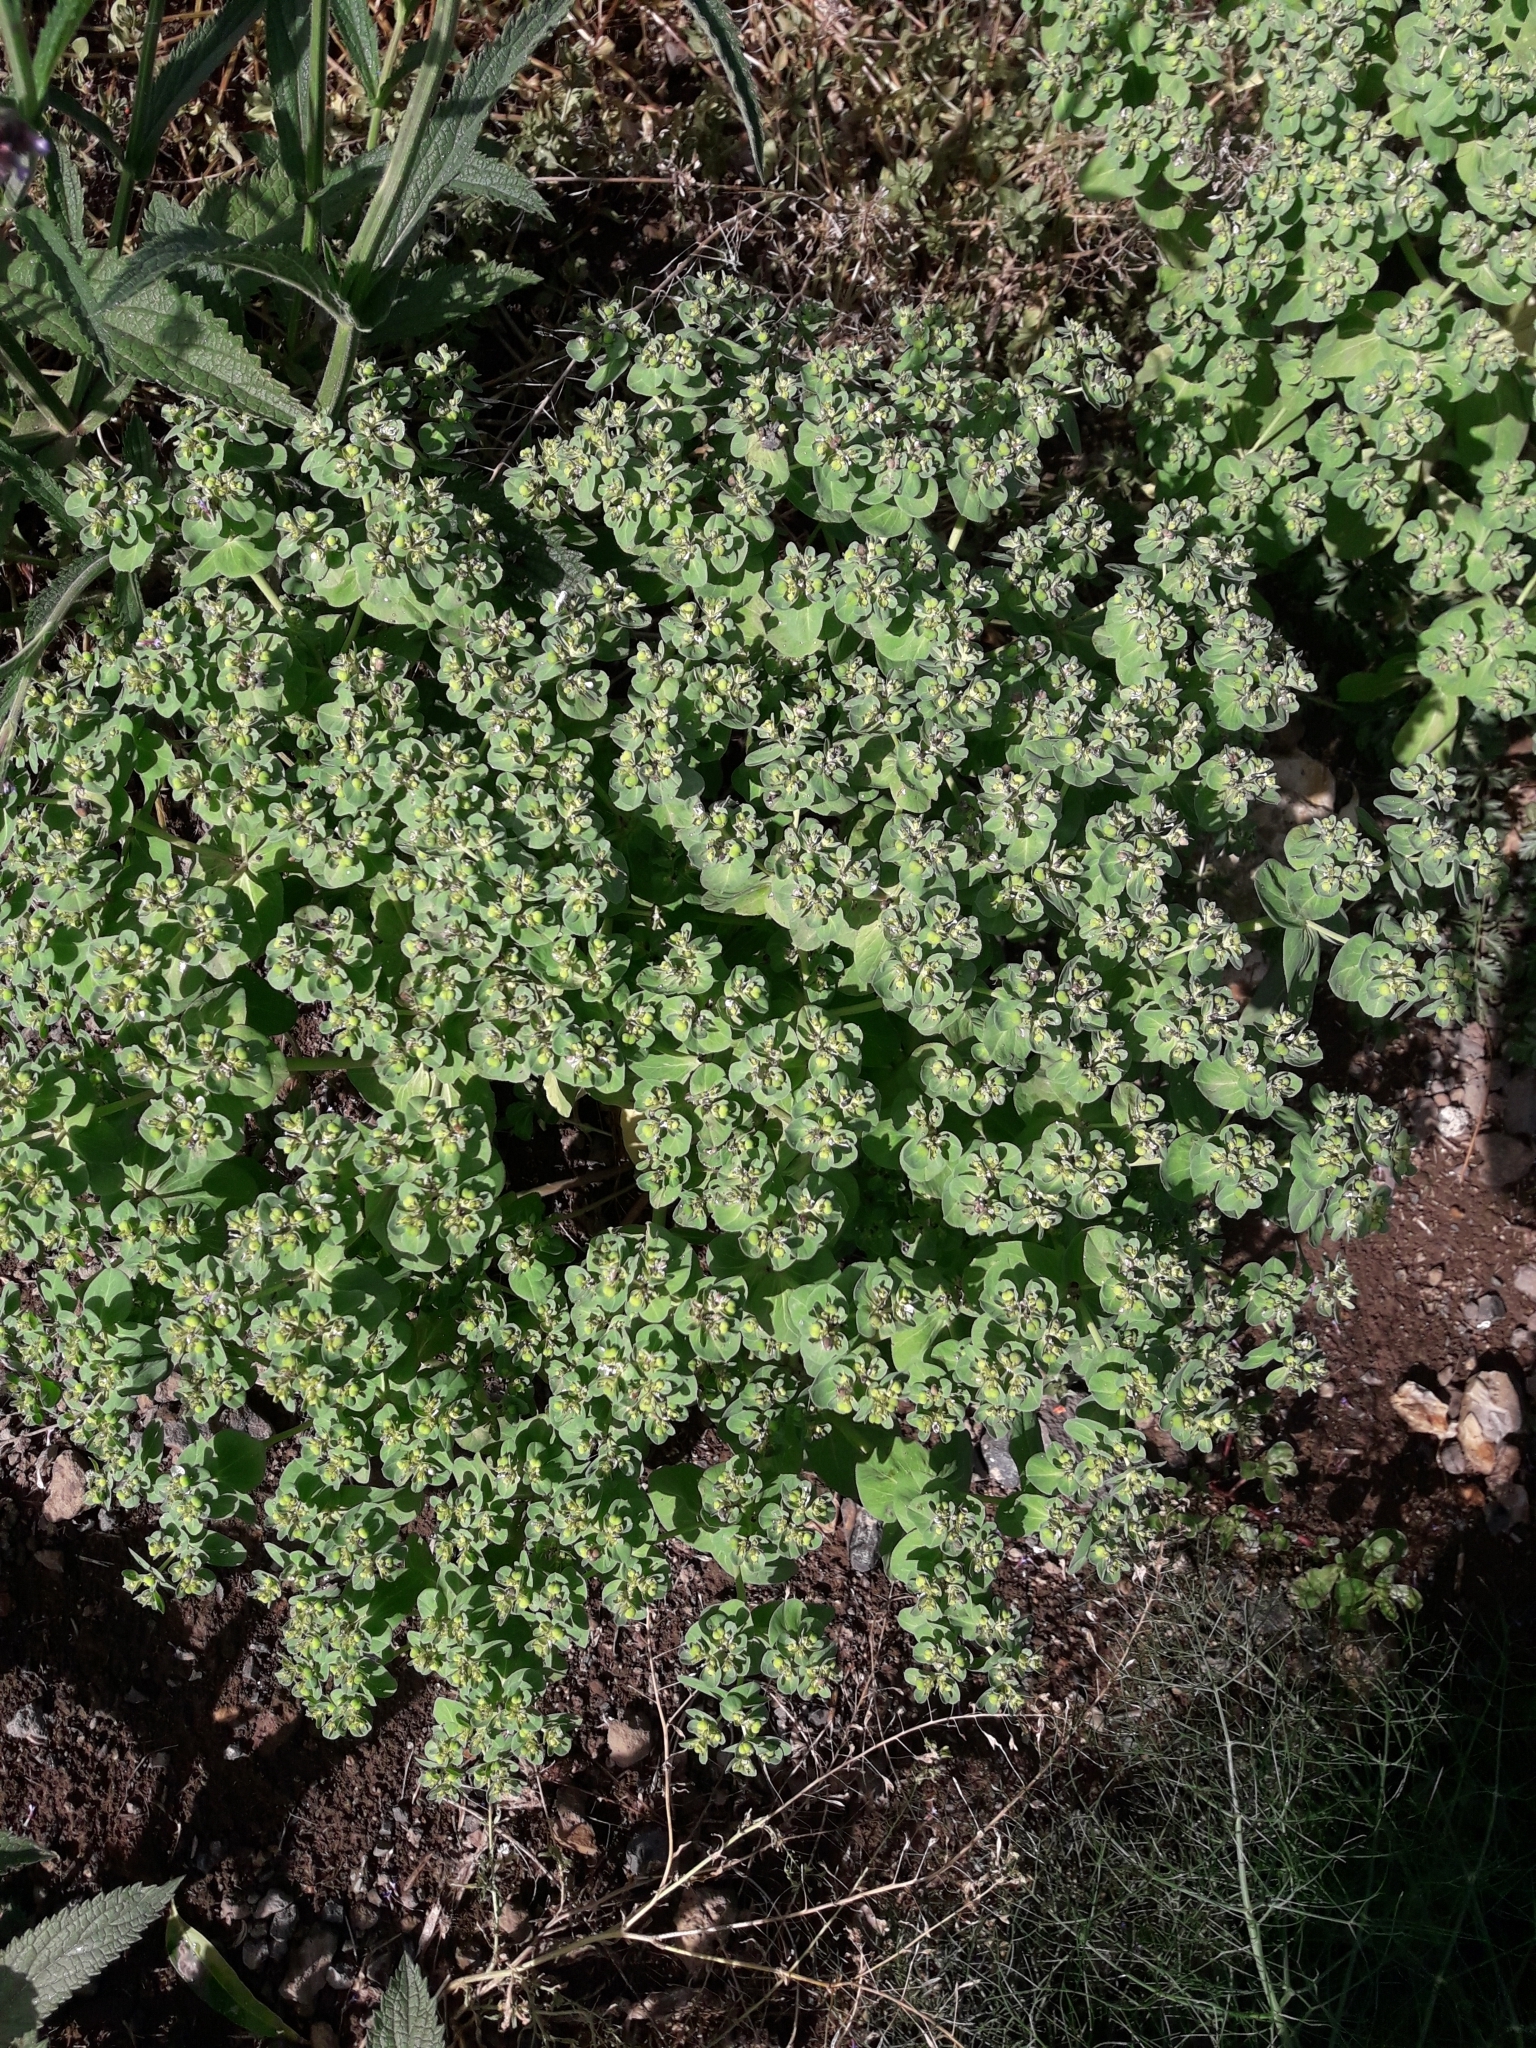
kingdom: Plantae
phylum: Tracheophyta
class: Magnoliopsida
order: Malpighiales
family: Euphorbiaceae
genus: Euphorbia
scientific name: Euphorbia helioscopia
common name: Sun spurge
